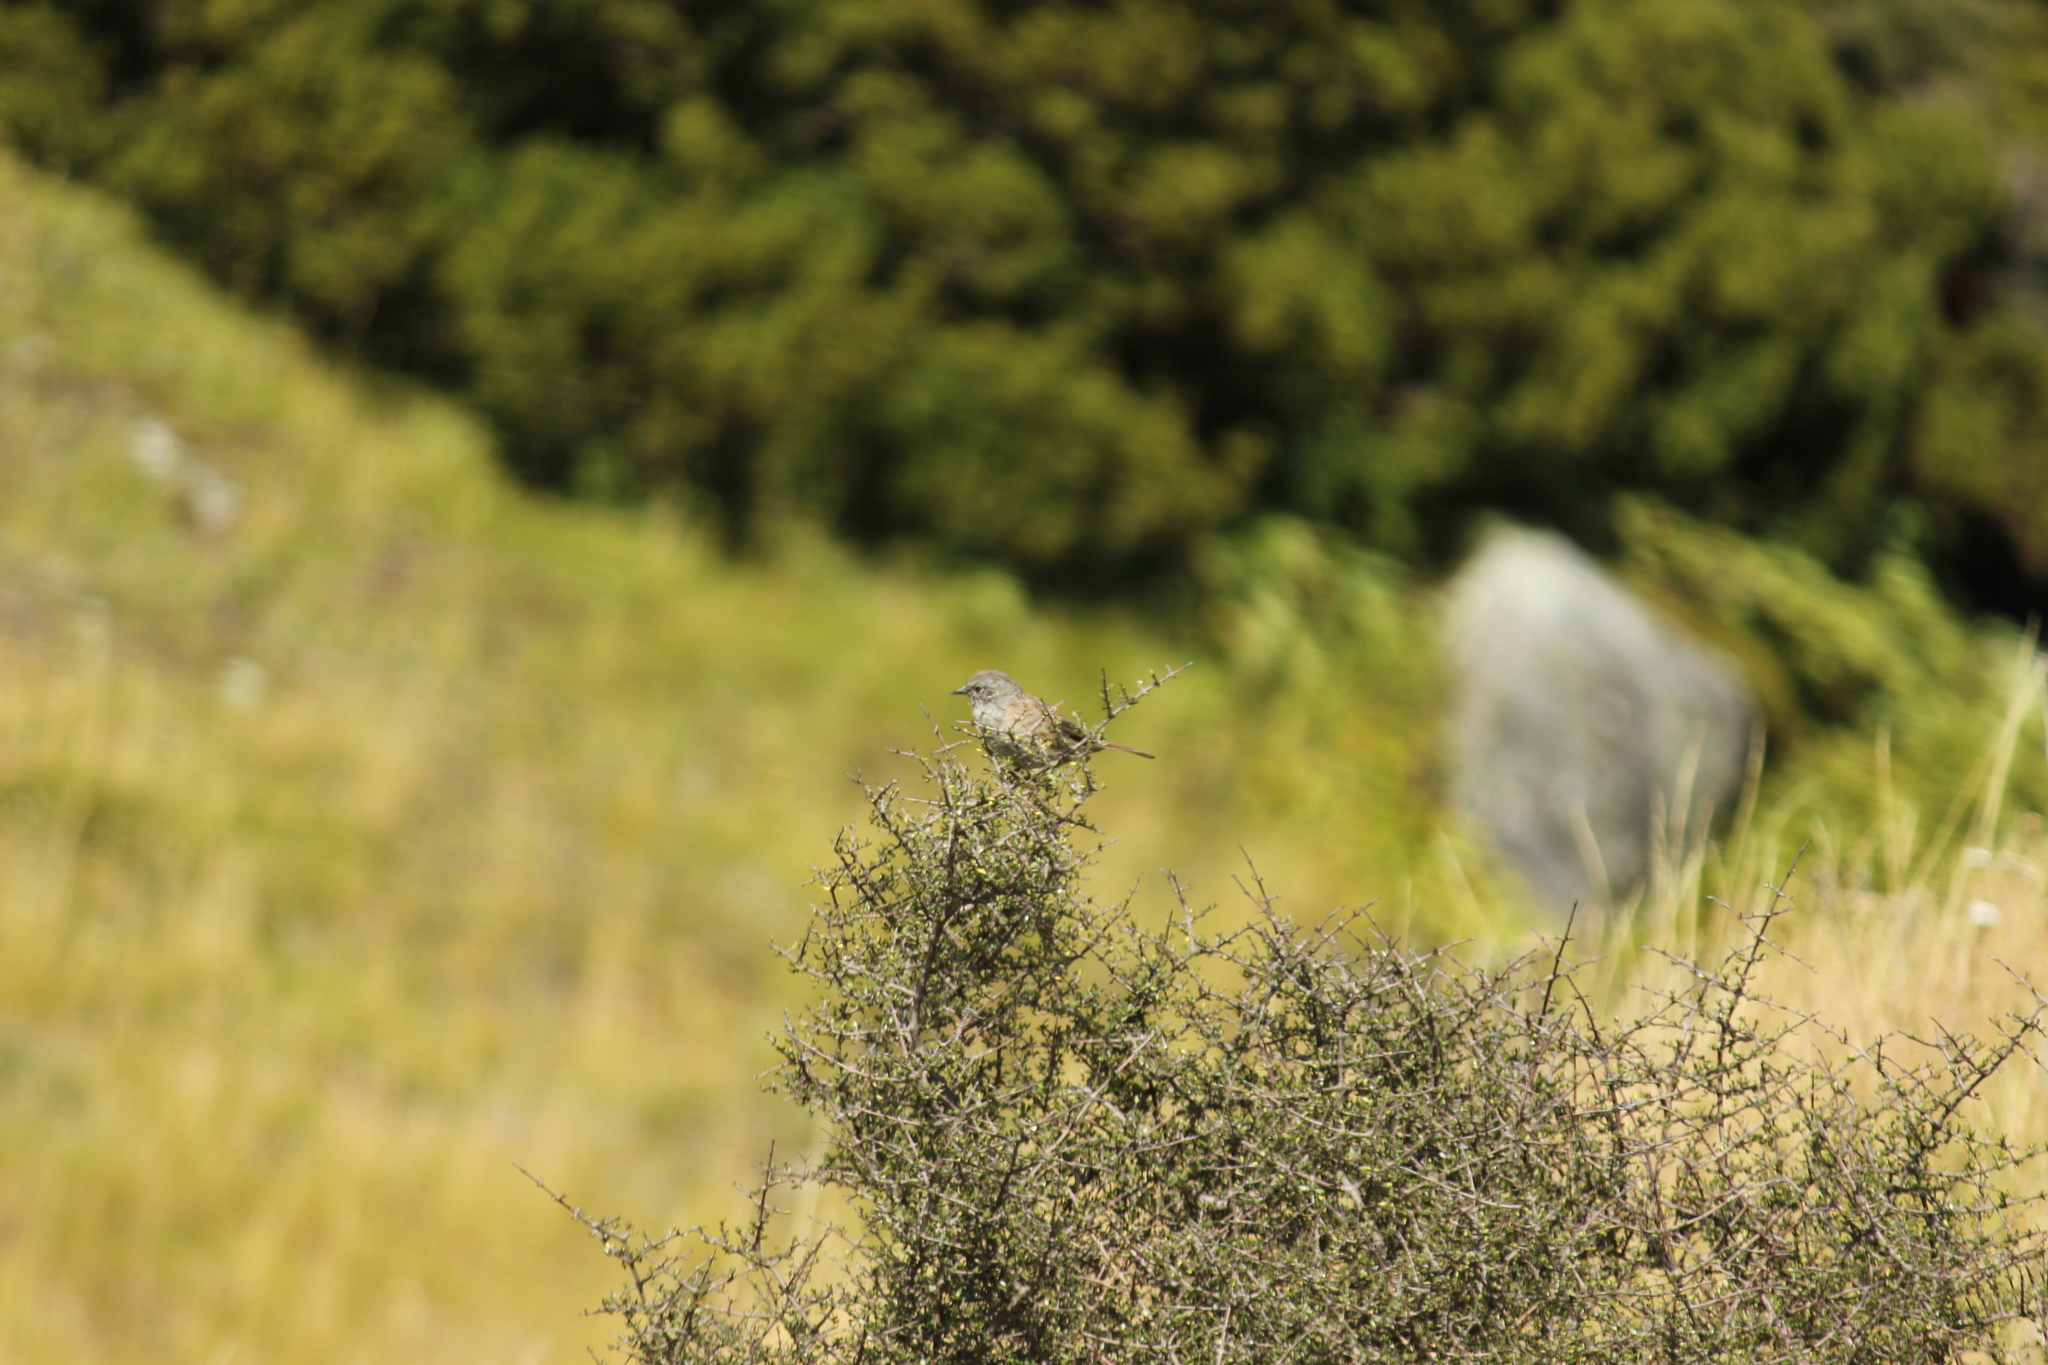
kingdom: Animalia
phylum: Chordata
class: Aves
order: Passeriformes
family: Prunellidae
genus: Prunella
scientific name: Prunella modularis
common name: Dunnock
